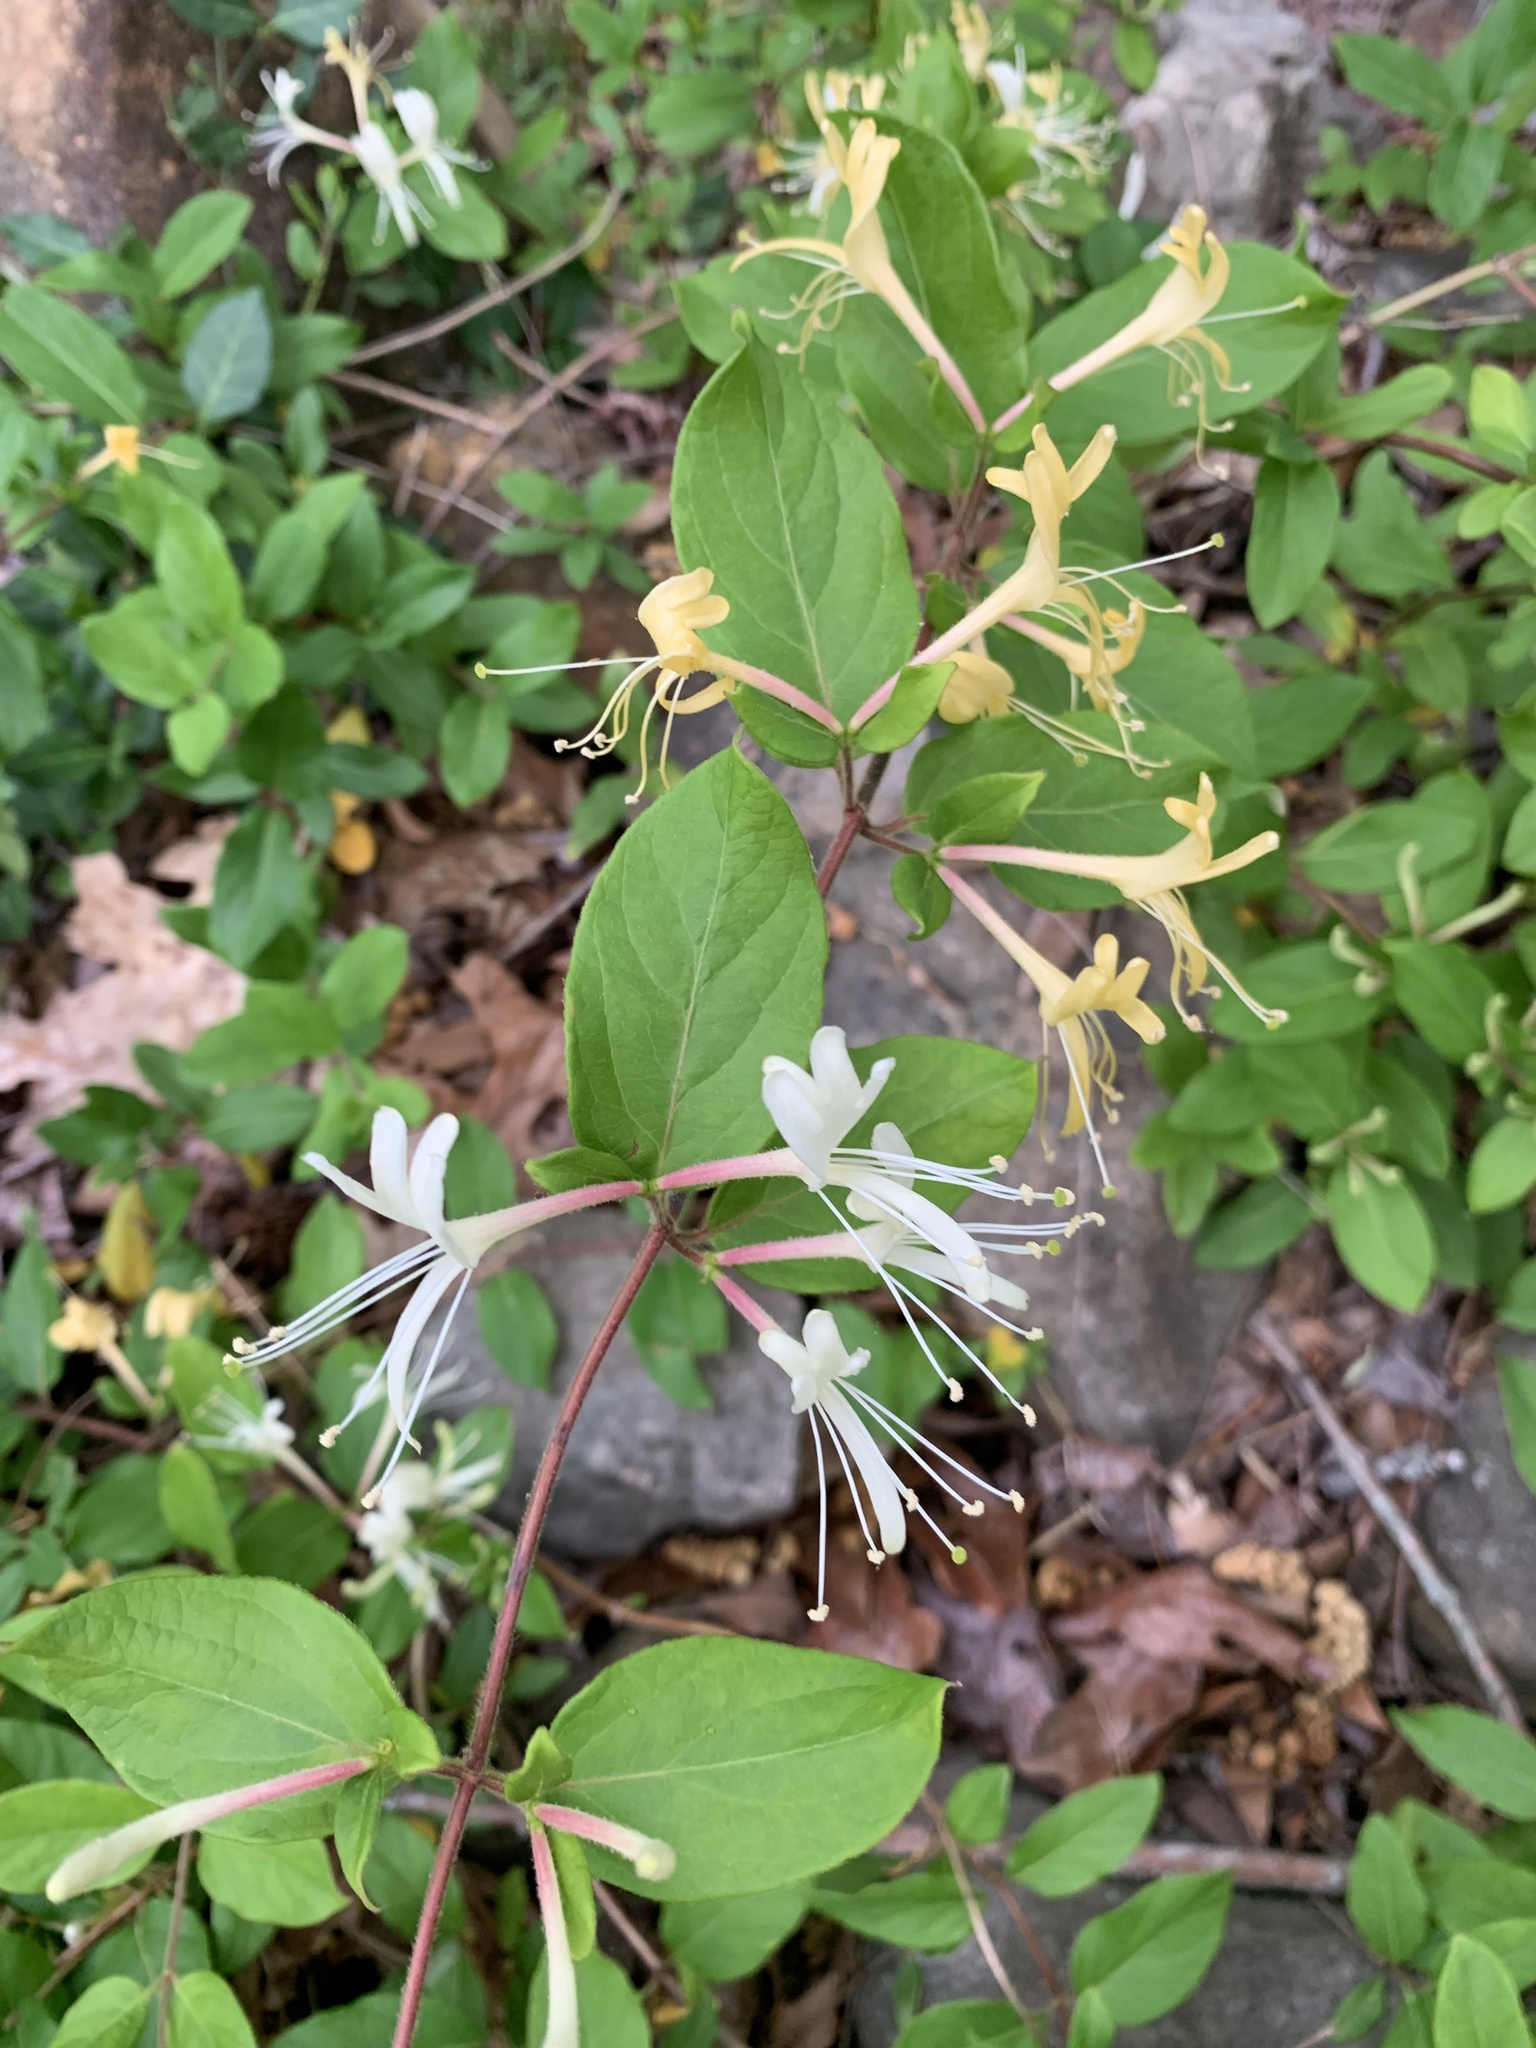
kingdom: Plantae
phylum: Tracheophyta
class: Magnoliopsida
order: Dipsacales
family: Caprifoliaceae
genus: Lonicera
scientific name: Lonicera japonica
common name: Japanese honeysuckle
